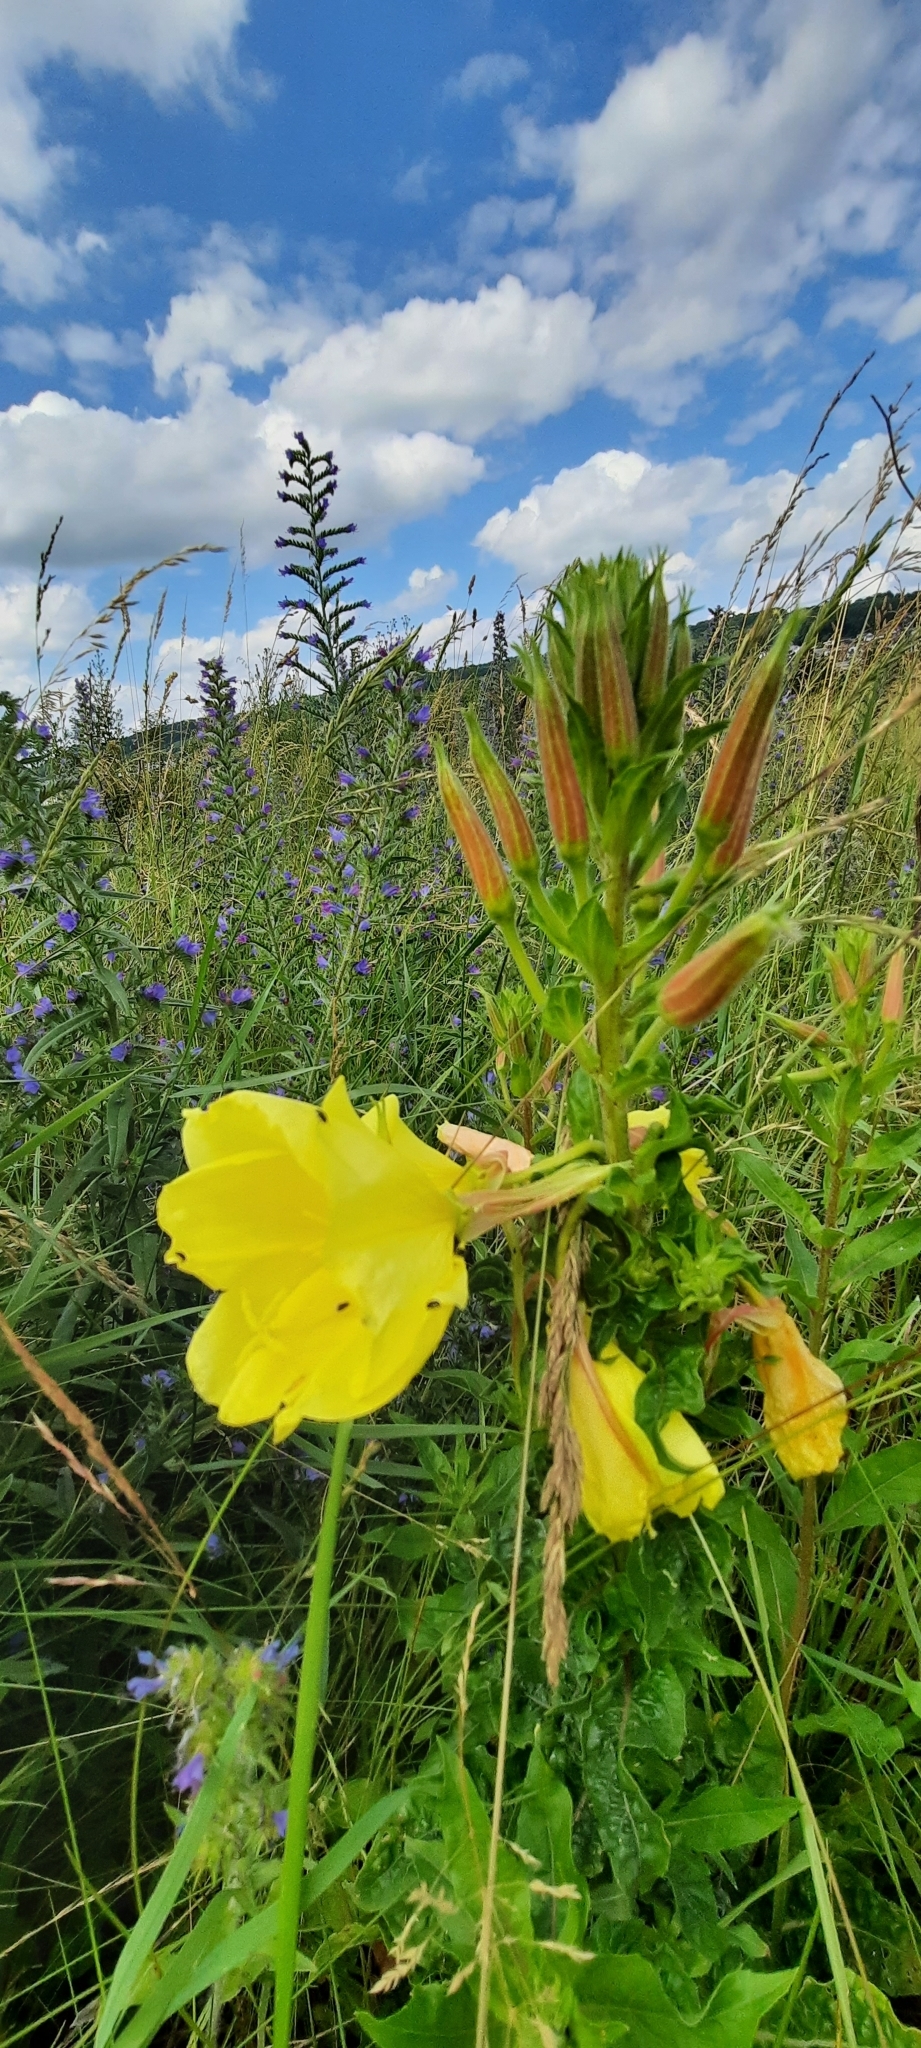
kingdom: Plantae
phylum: Tracheophyta
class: Magnoliopsida
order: Myrtales
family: Onagraceae
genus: Oenothera
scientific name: Oenothera glazioviana
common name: Large-flowered evening-primrose
